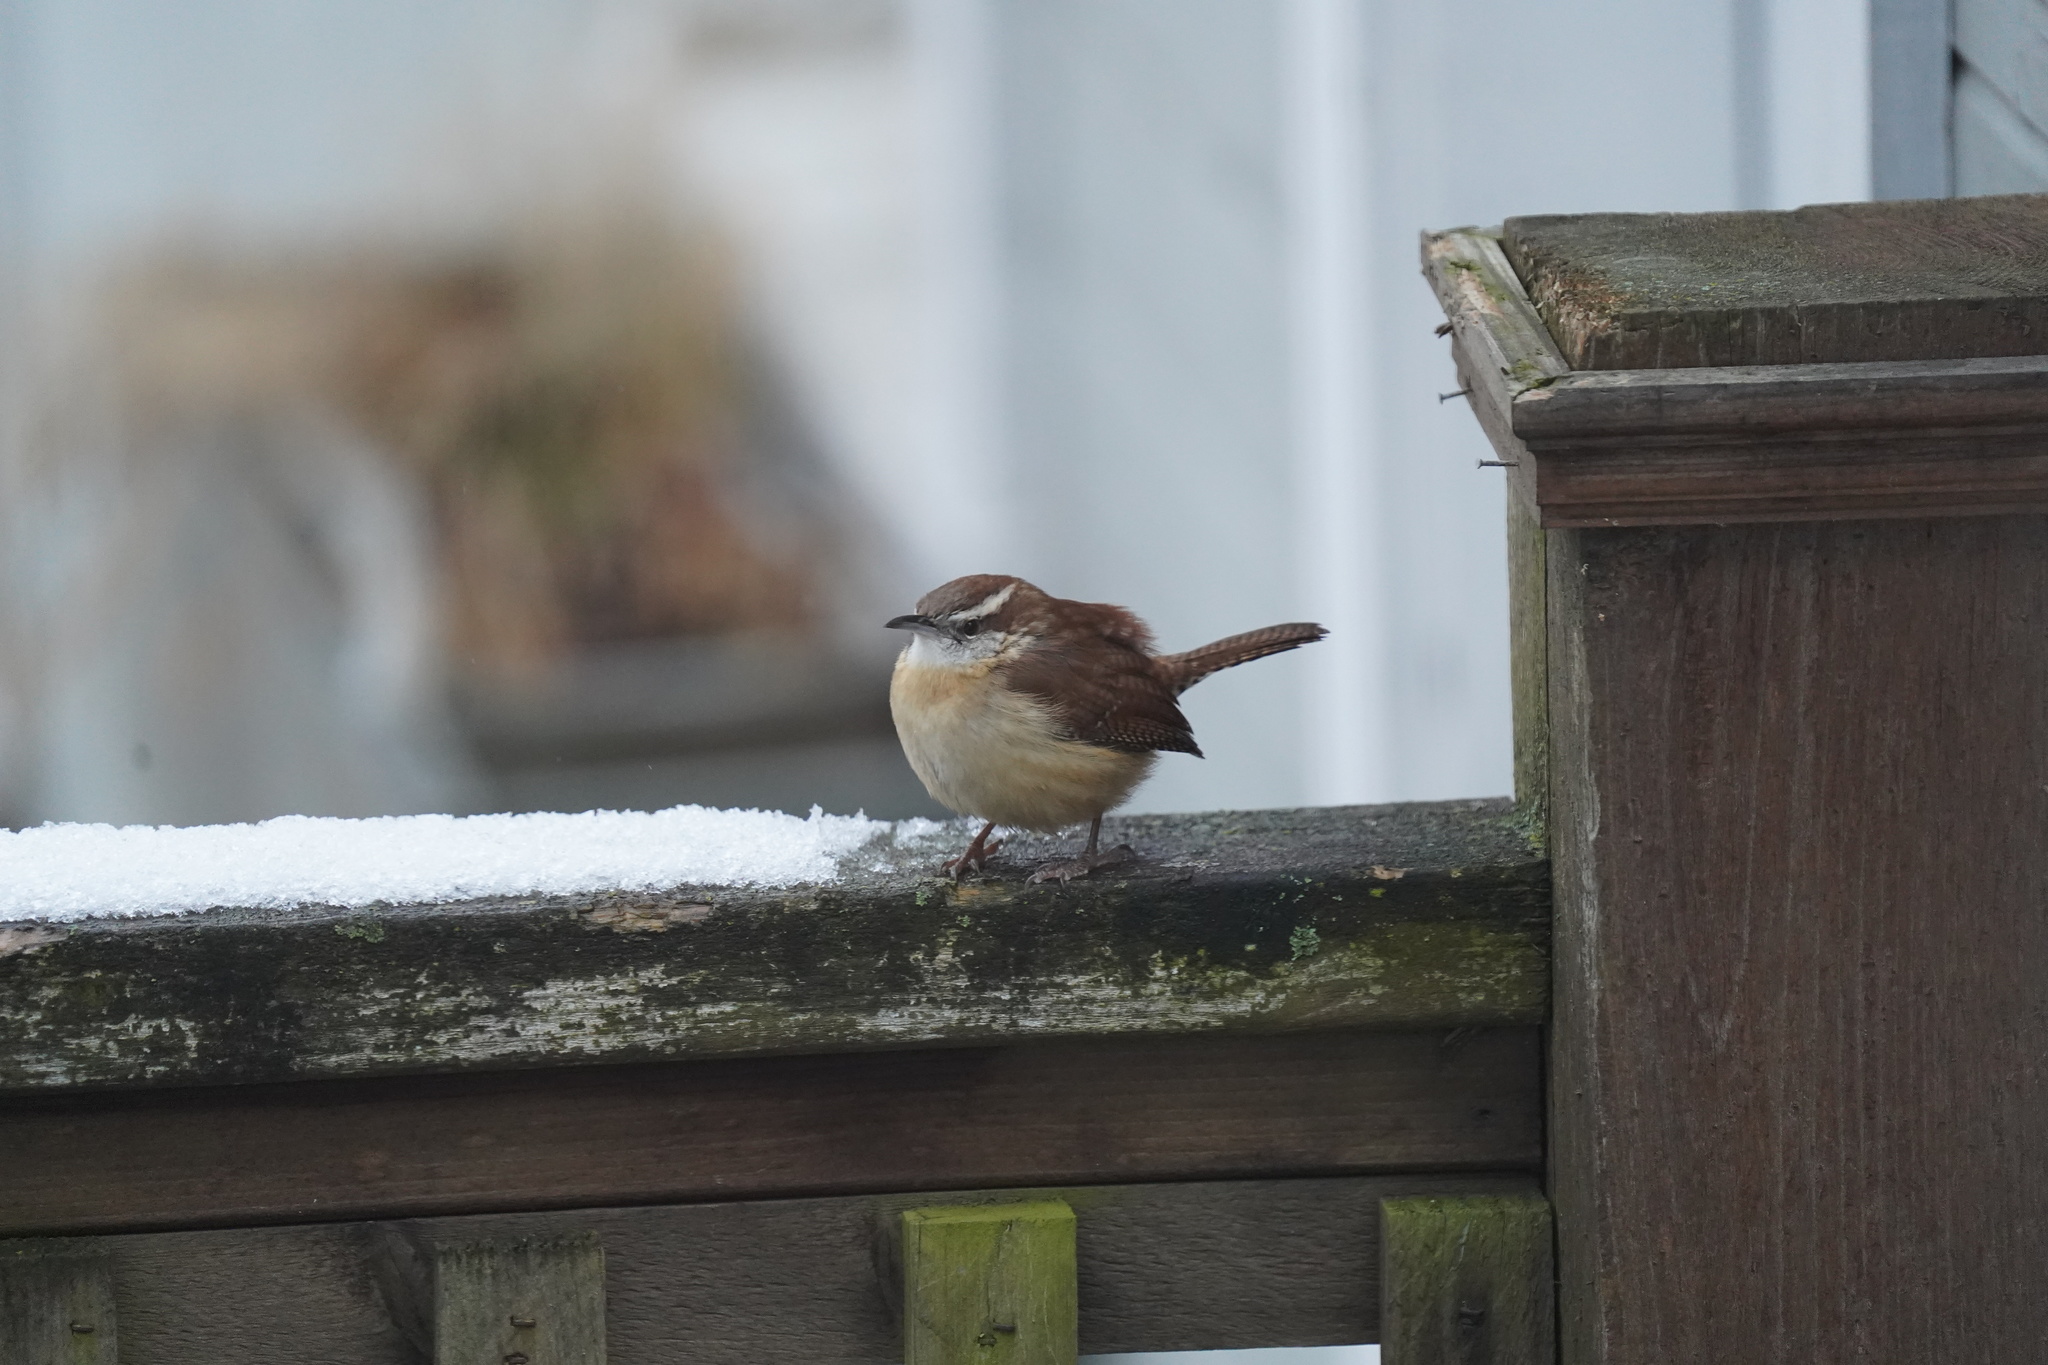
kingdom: Animalia
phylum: Chordata
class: Aves
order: Passeriformes
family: Troglodytidae
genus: Thryothorus
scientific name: Thryothorus ludovicianus
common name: Carolina wren
